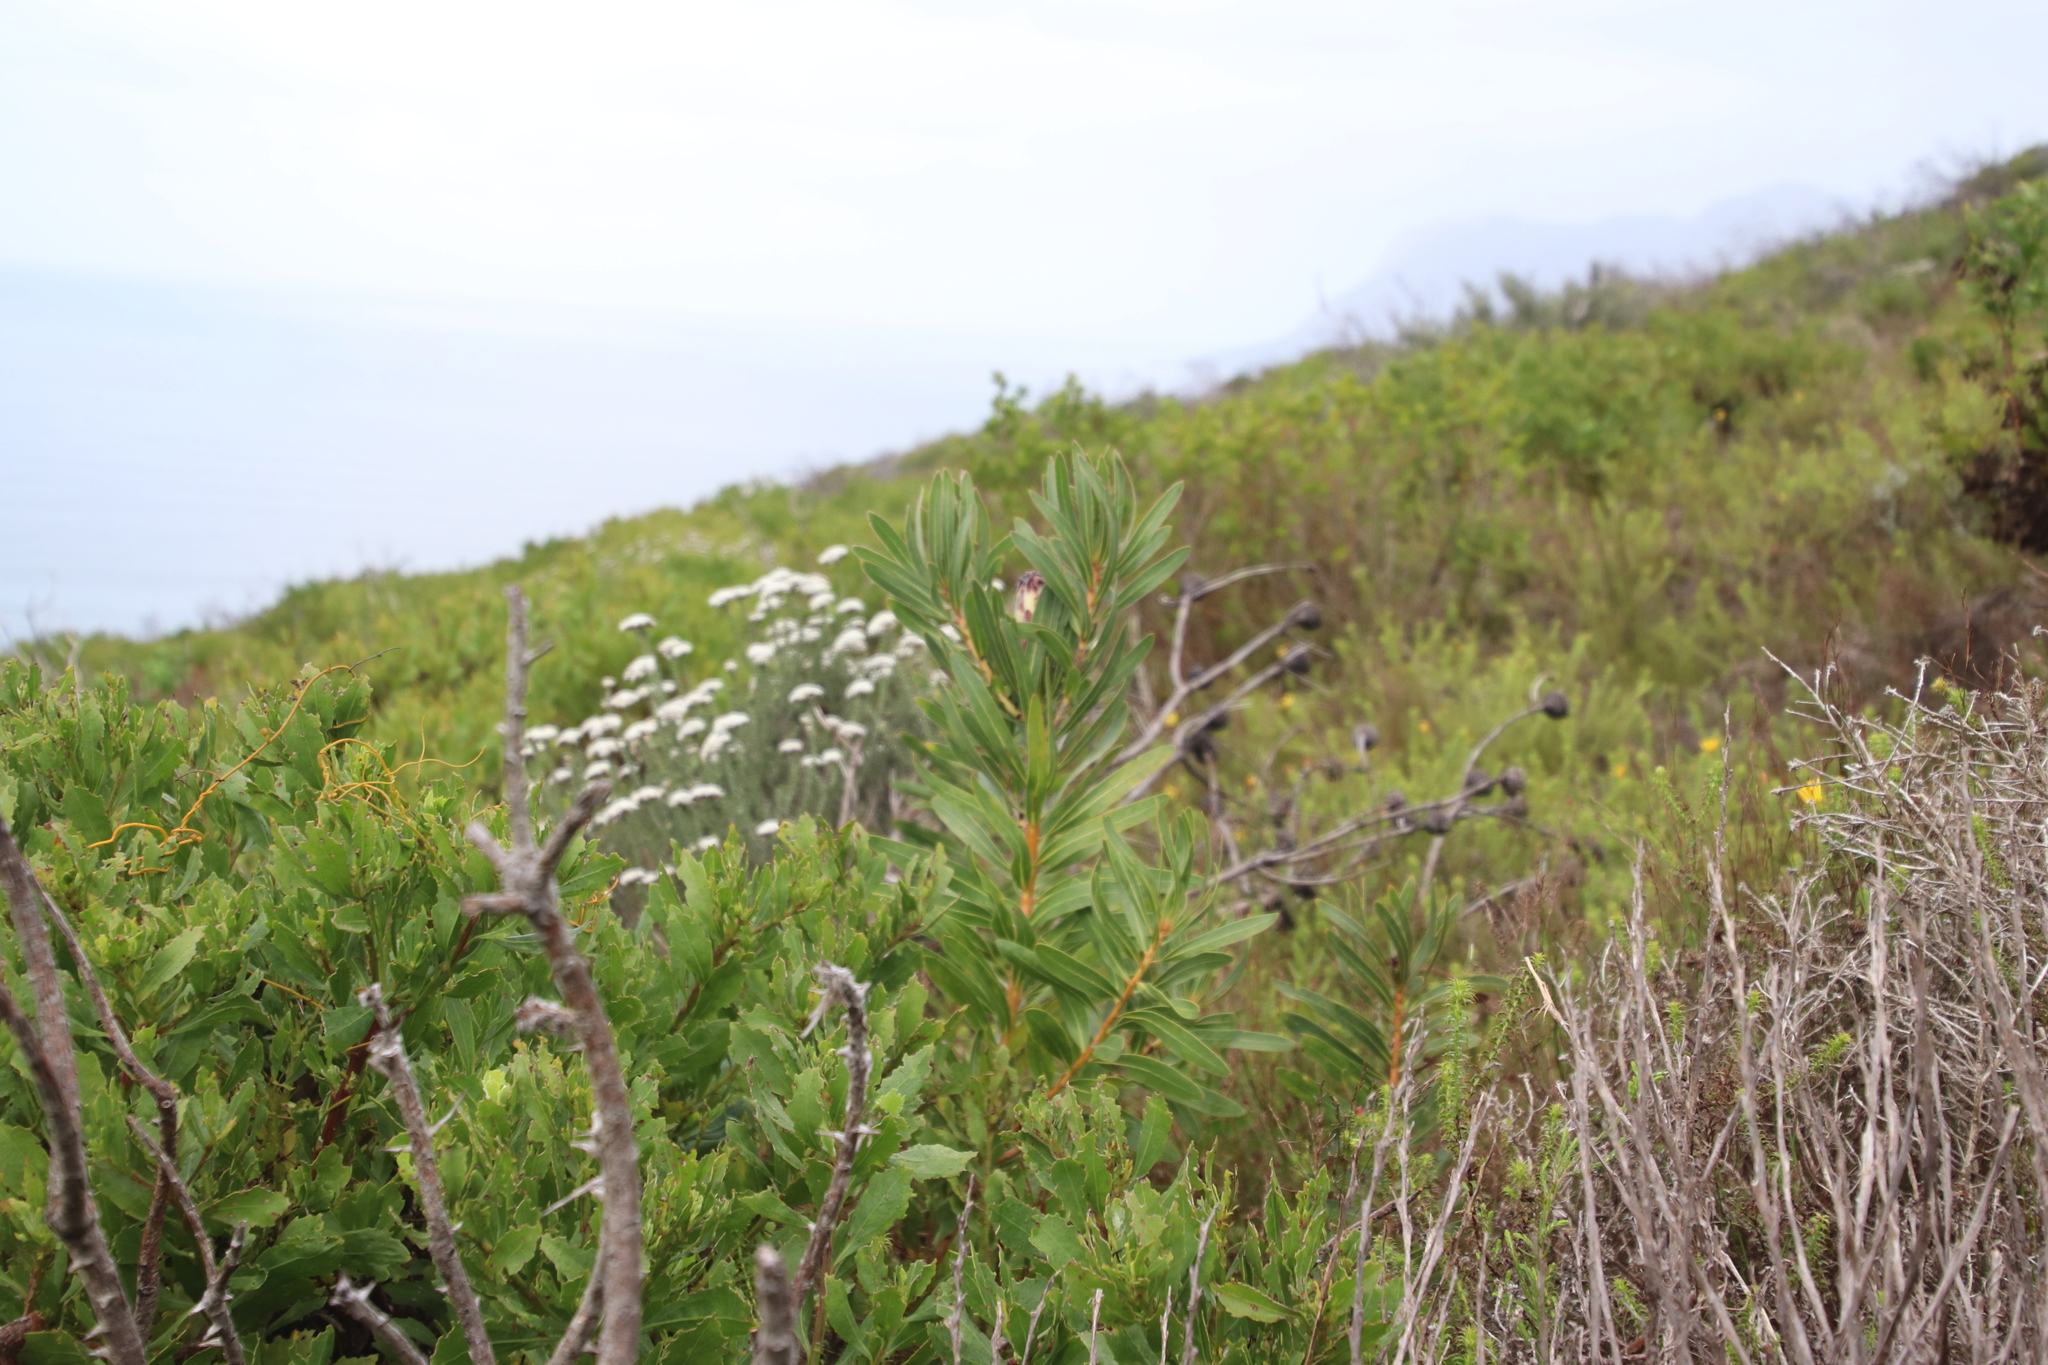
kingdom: Plantae
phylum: Tracheophyta
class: Magnoliopsida
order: Proteales
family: Proteaceae
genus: Protea
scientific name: Protea lepidocarpodendron
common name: Black-bearded protea
